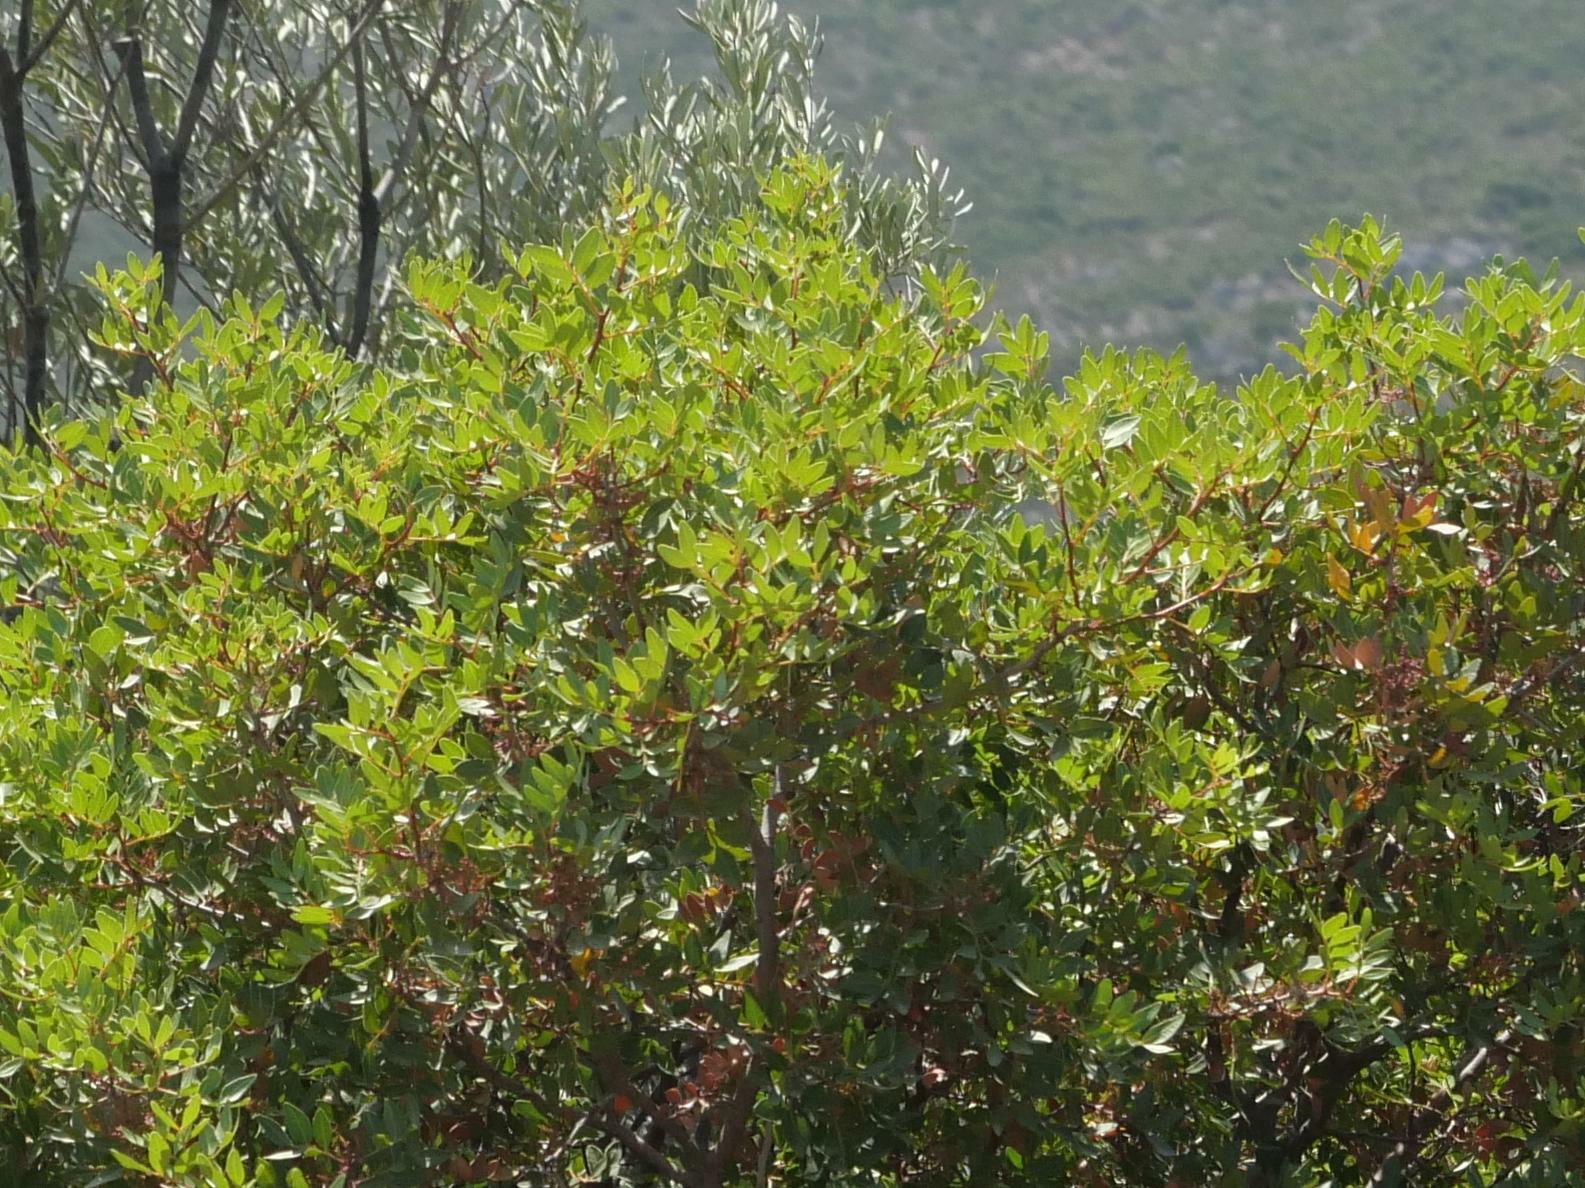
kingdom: Plantae
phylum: Tracheophyta
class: Magnoliopsida
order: Sapindales
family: Anacardiaceae
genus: Pistacia
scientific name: Pistacia lentiscus
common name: Lentisk
